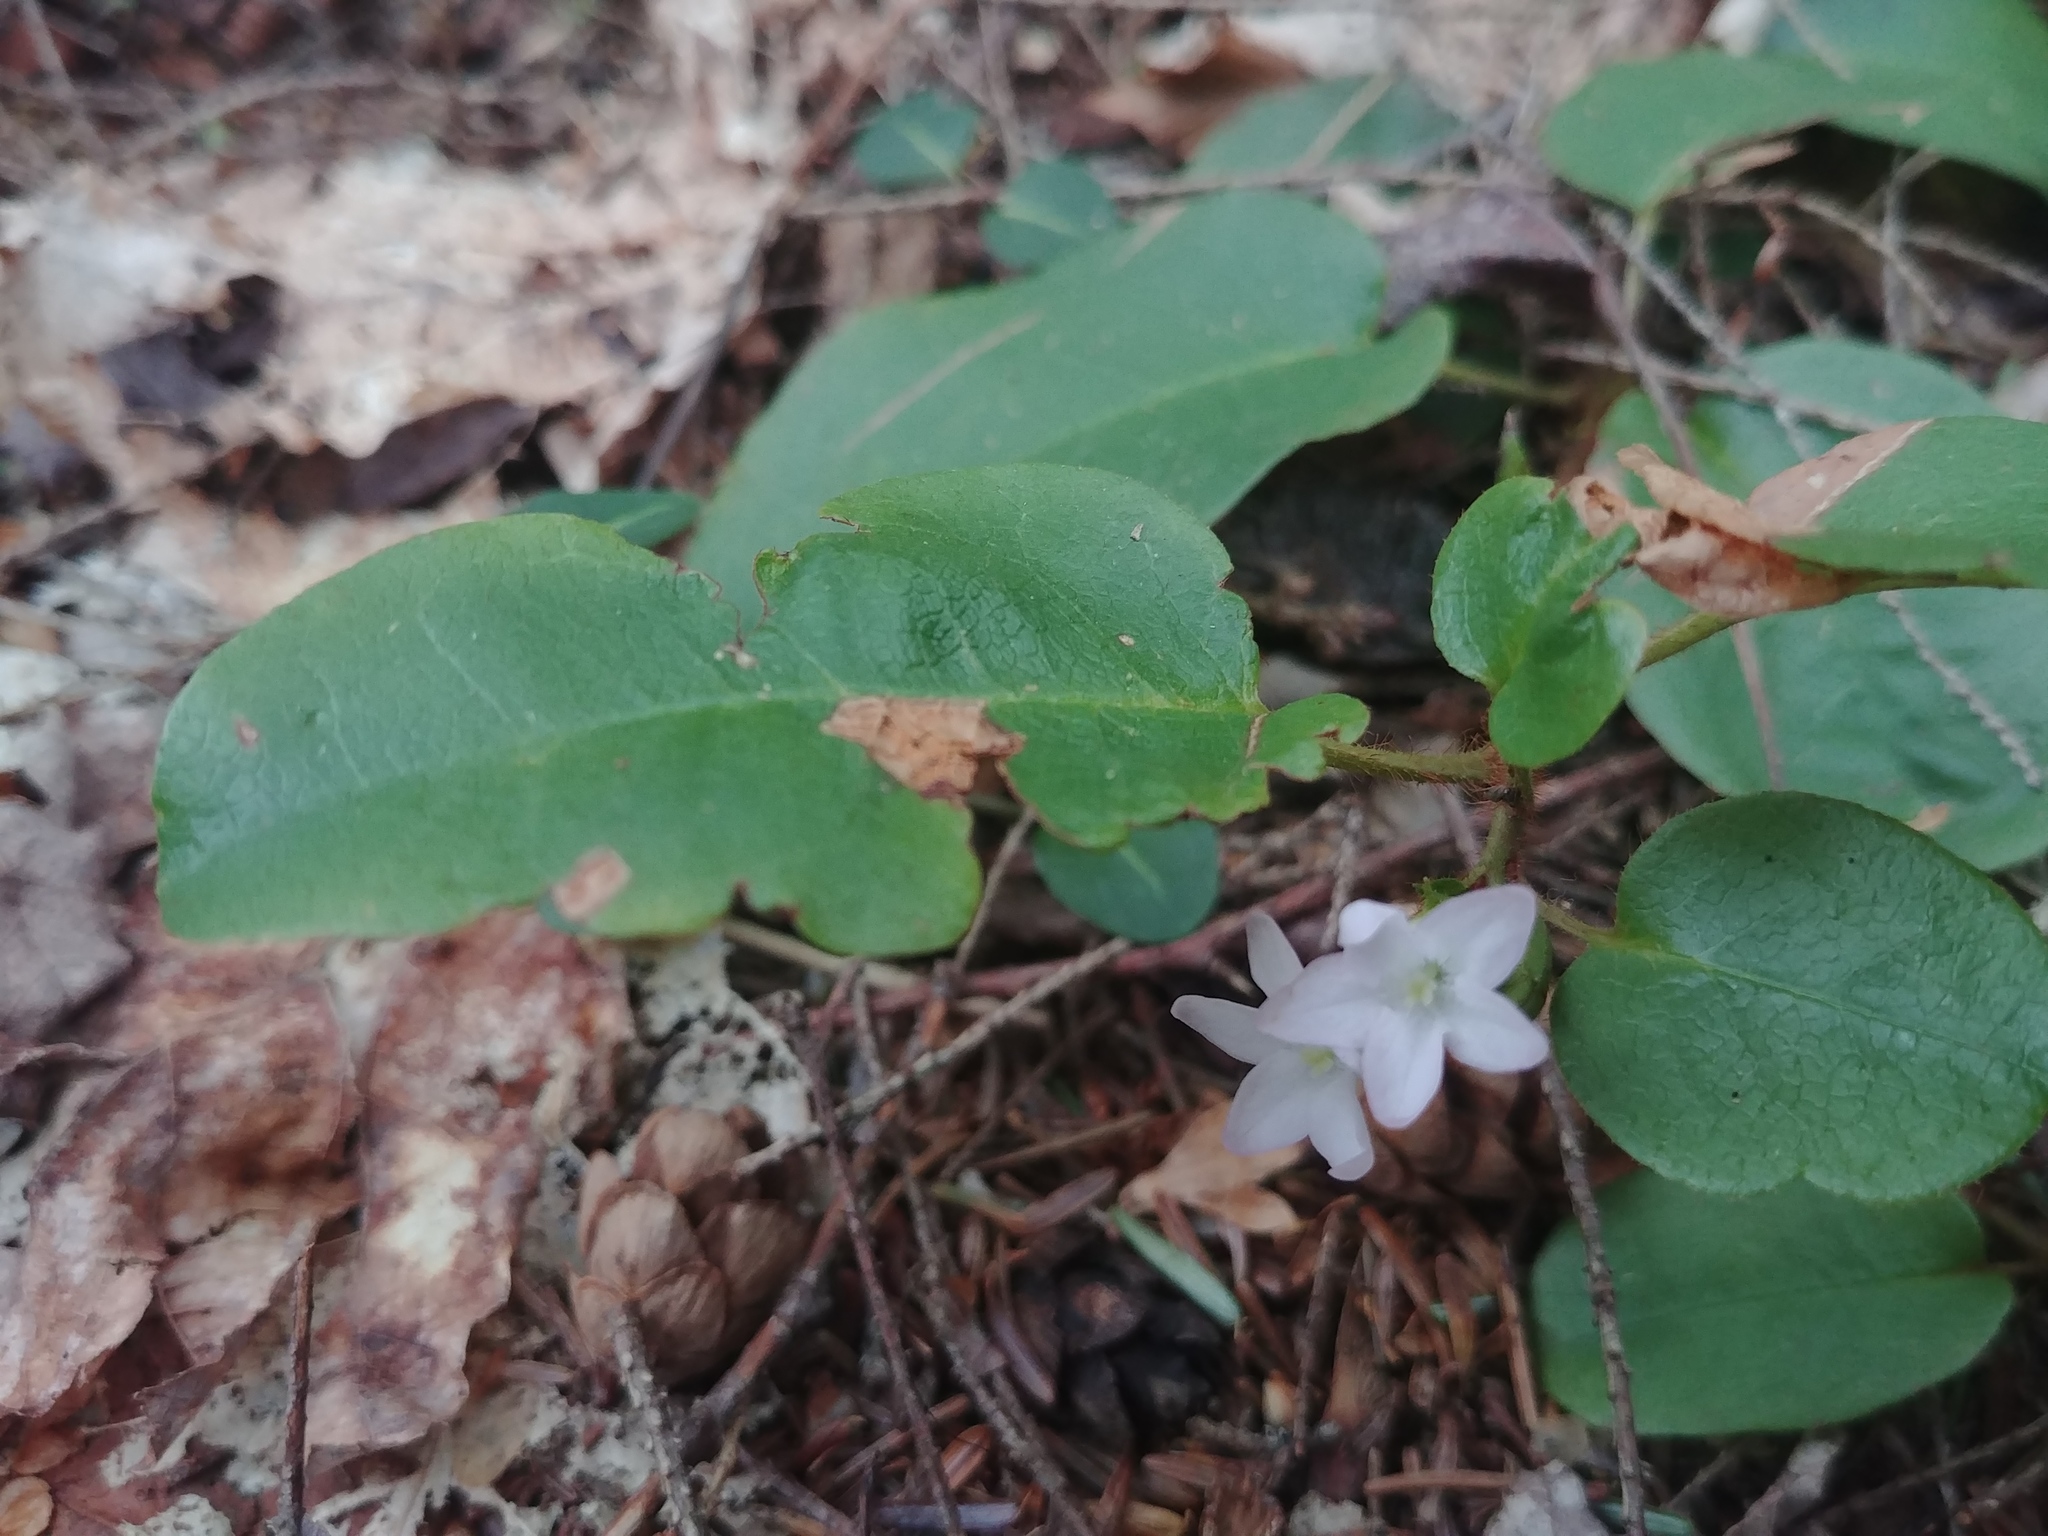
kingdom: Plantae
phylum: Tracheophyta
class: Magnoliopsida
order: Ericales
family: Ericaceae
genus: Epigaea
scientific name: Epigaea repens
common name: Gravelroot
